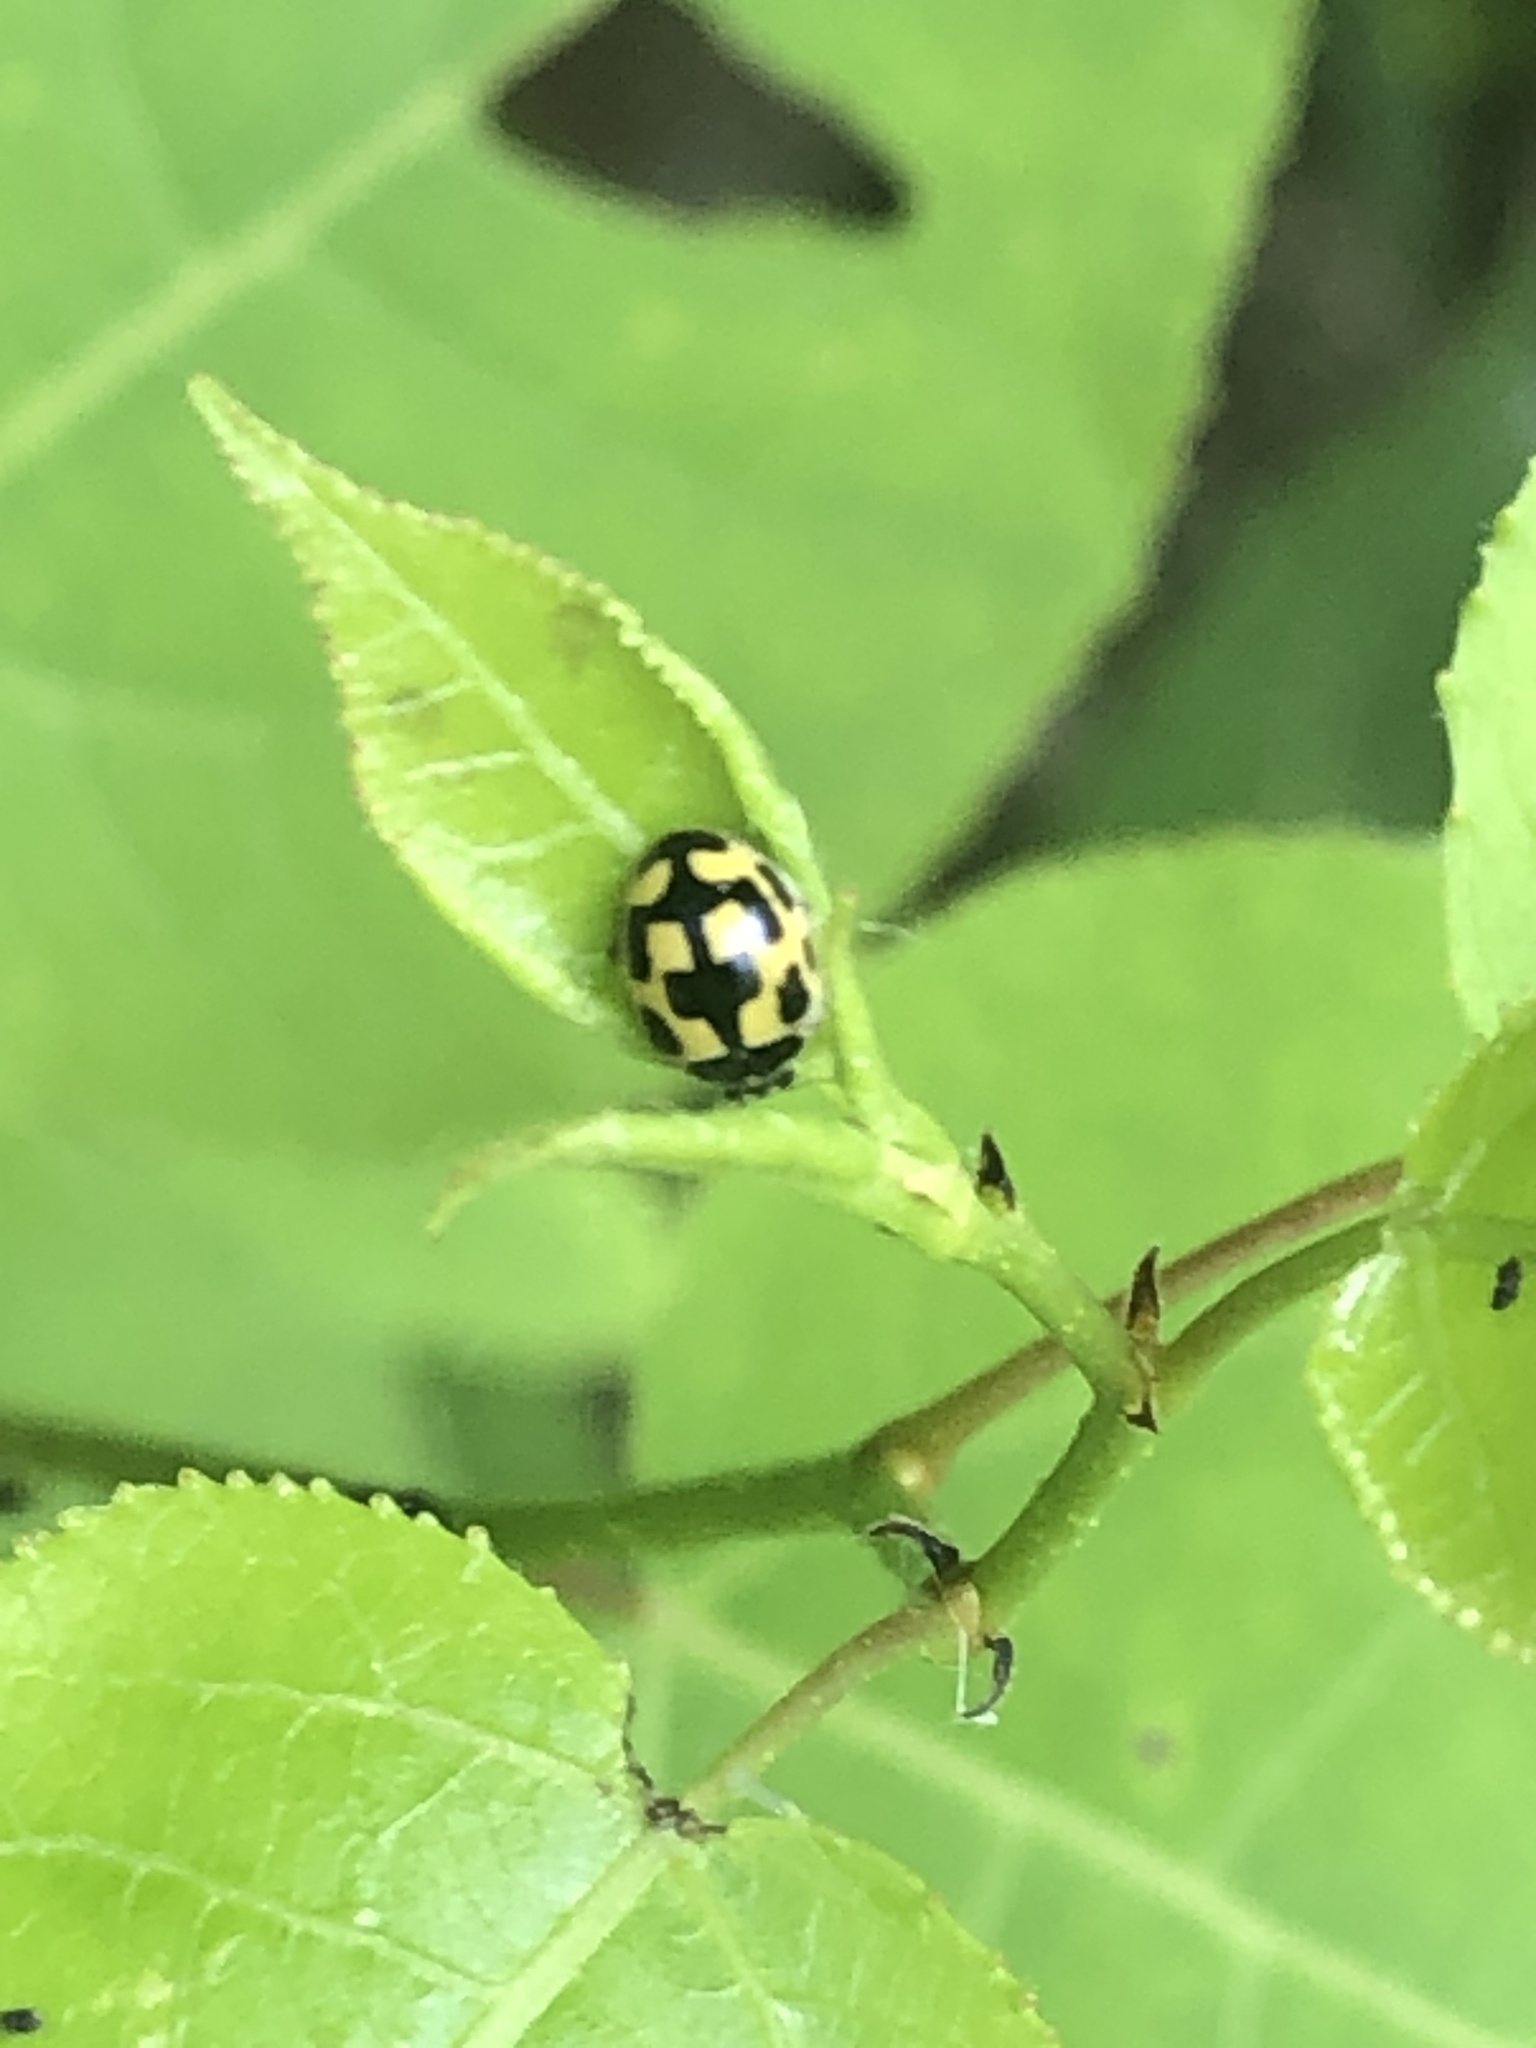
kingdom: Animalia
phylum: Arthropoda
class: Insecta
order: Coleoptera
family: Coccinellidae
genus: Propylaea
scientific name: Propylaea quatuordecimpunctata
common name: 14-spotted ladybird beetle
